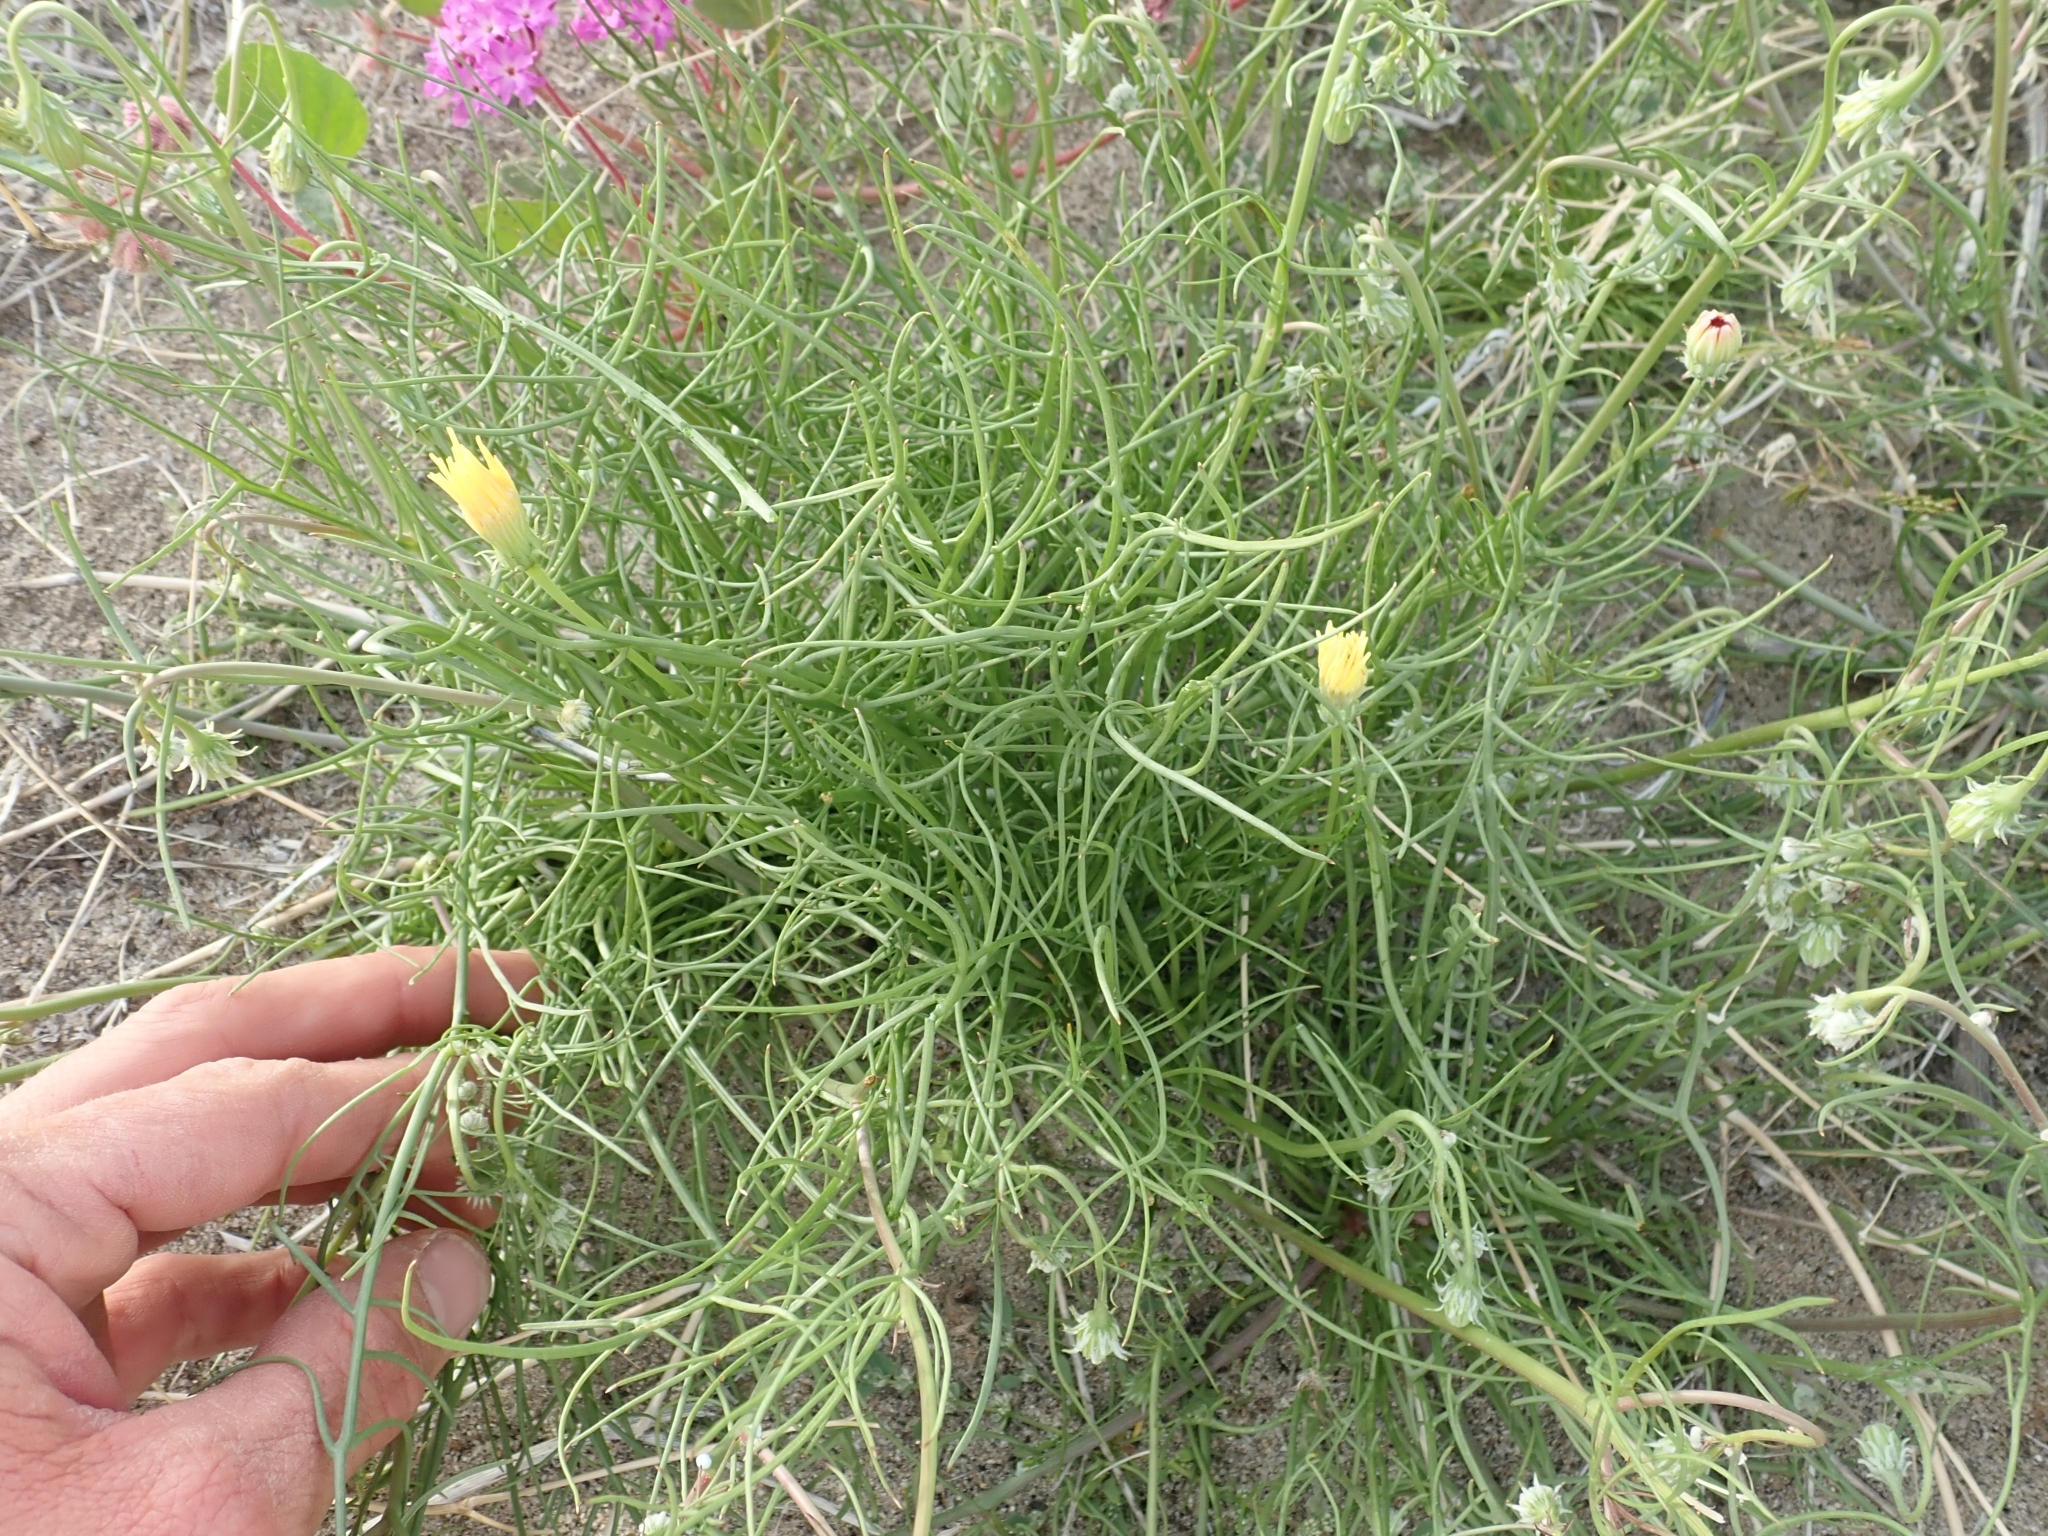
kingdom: Plantae
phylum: Tracheophyta
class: Magnoliopsida
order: Asterales
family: Asteraceae
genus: Malacothrix
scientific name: Malacothrix glabrata
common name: Smooth desert-dandelion
